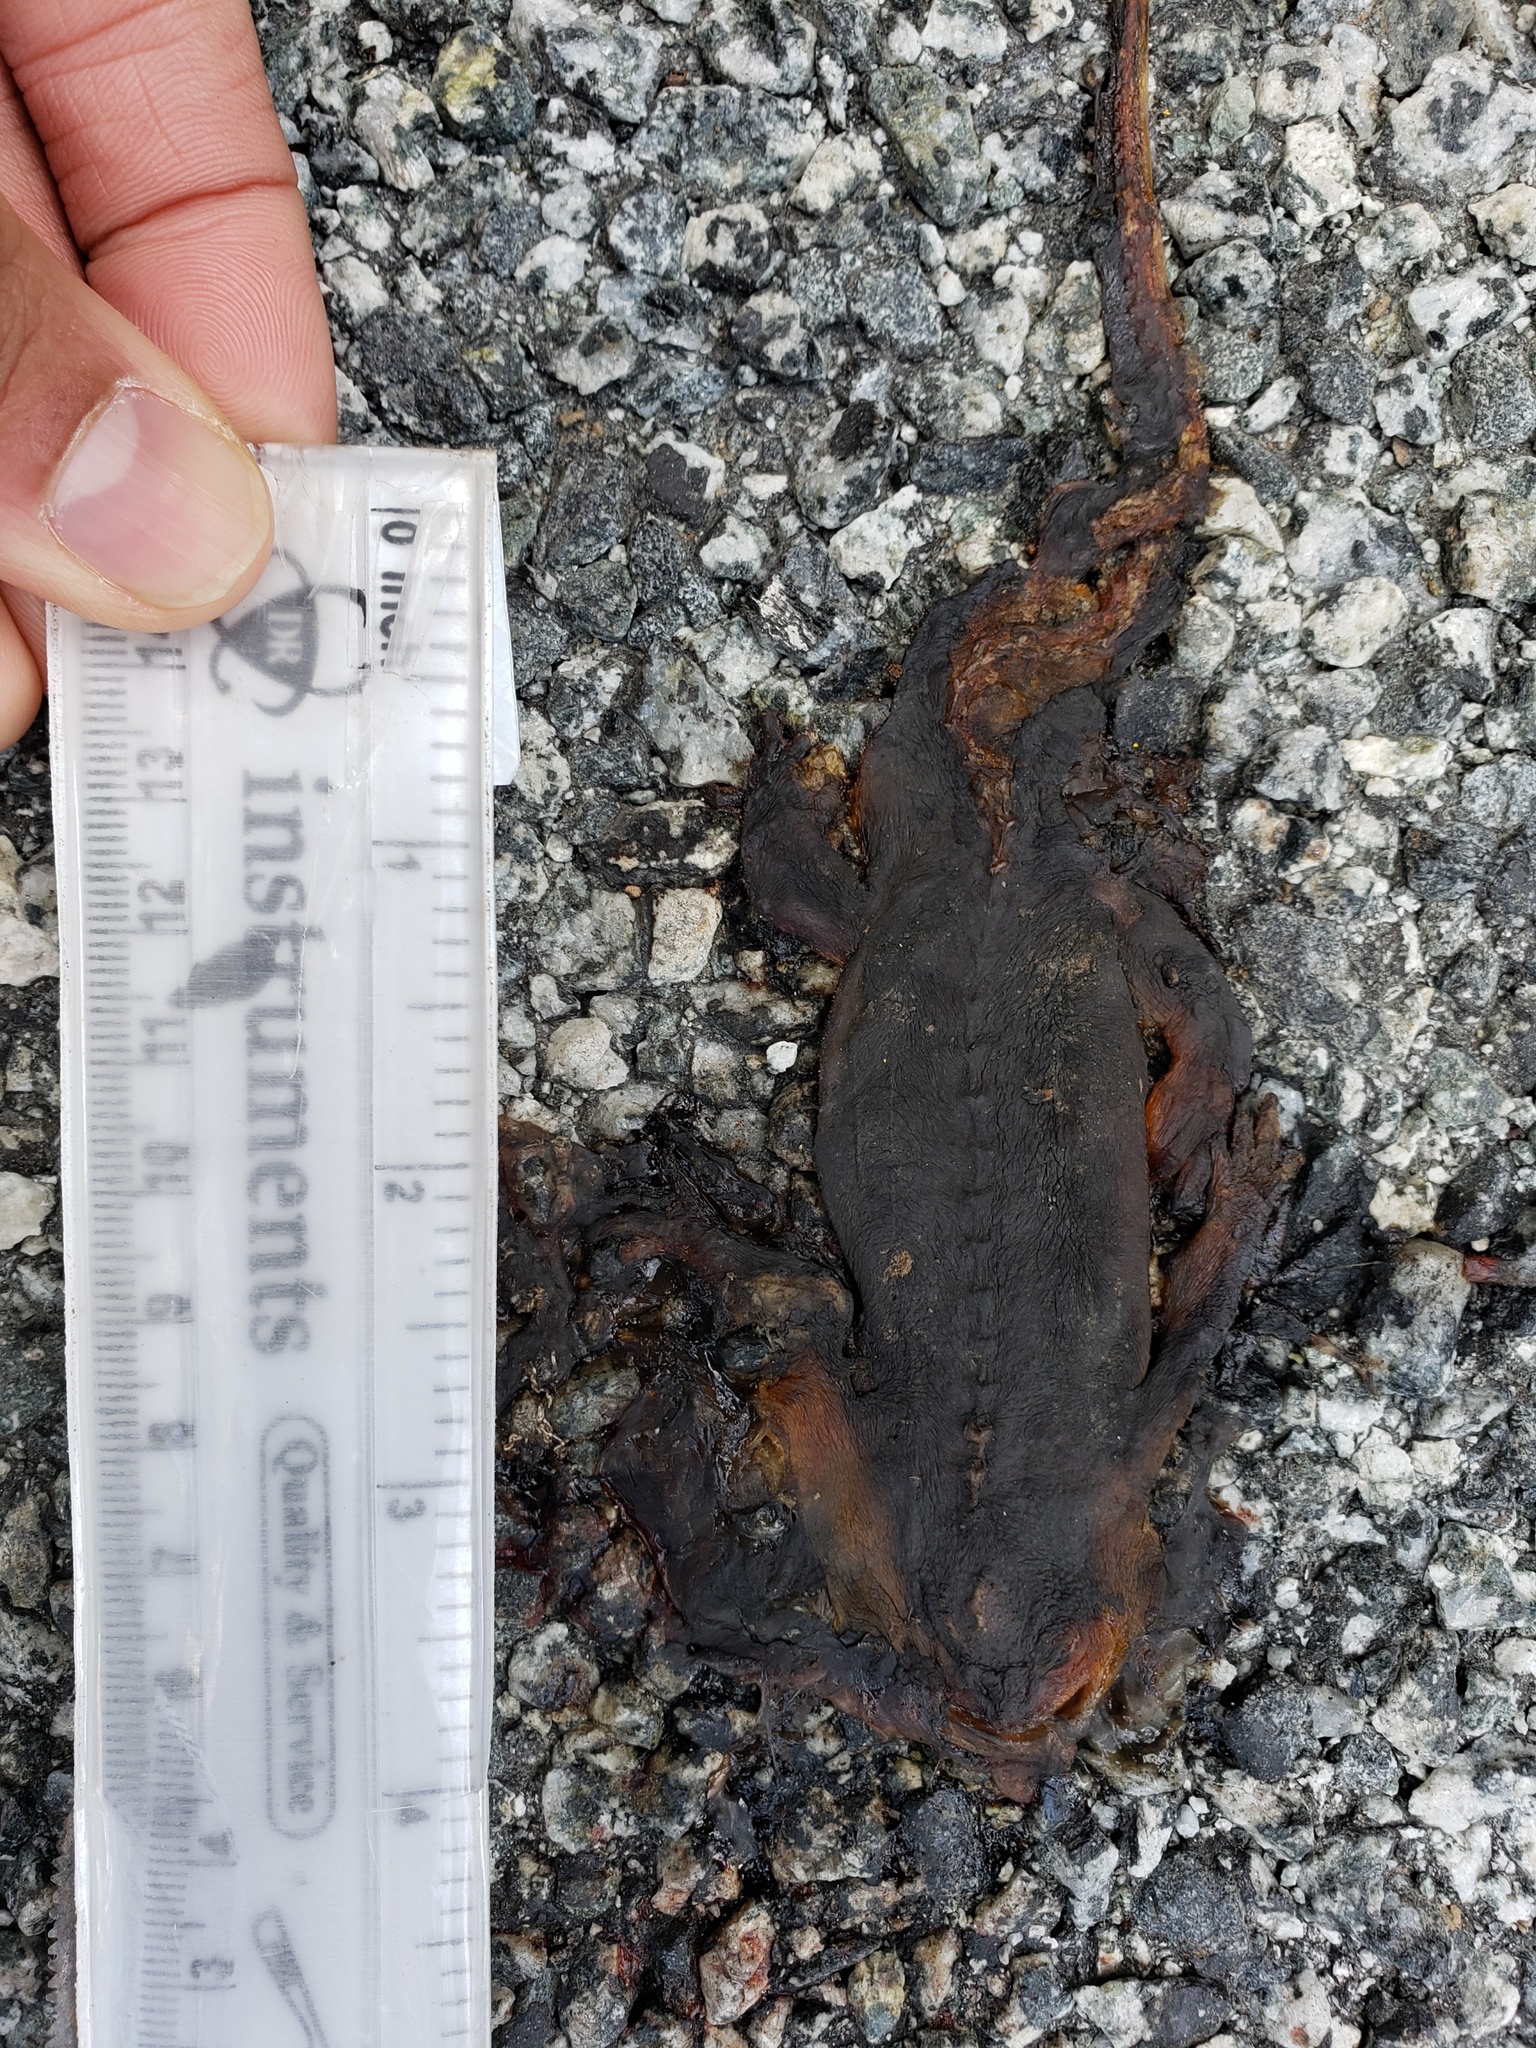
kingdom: Animalia
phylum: Chordata
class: Amphibia
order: Caudata
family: Salamandridae
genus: Taricha
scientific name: Taricha
